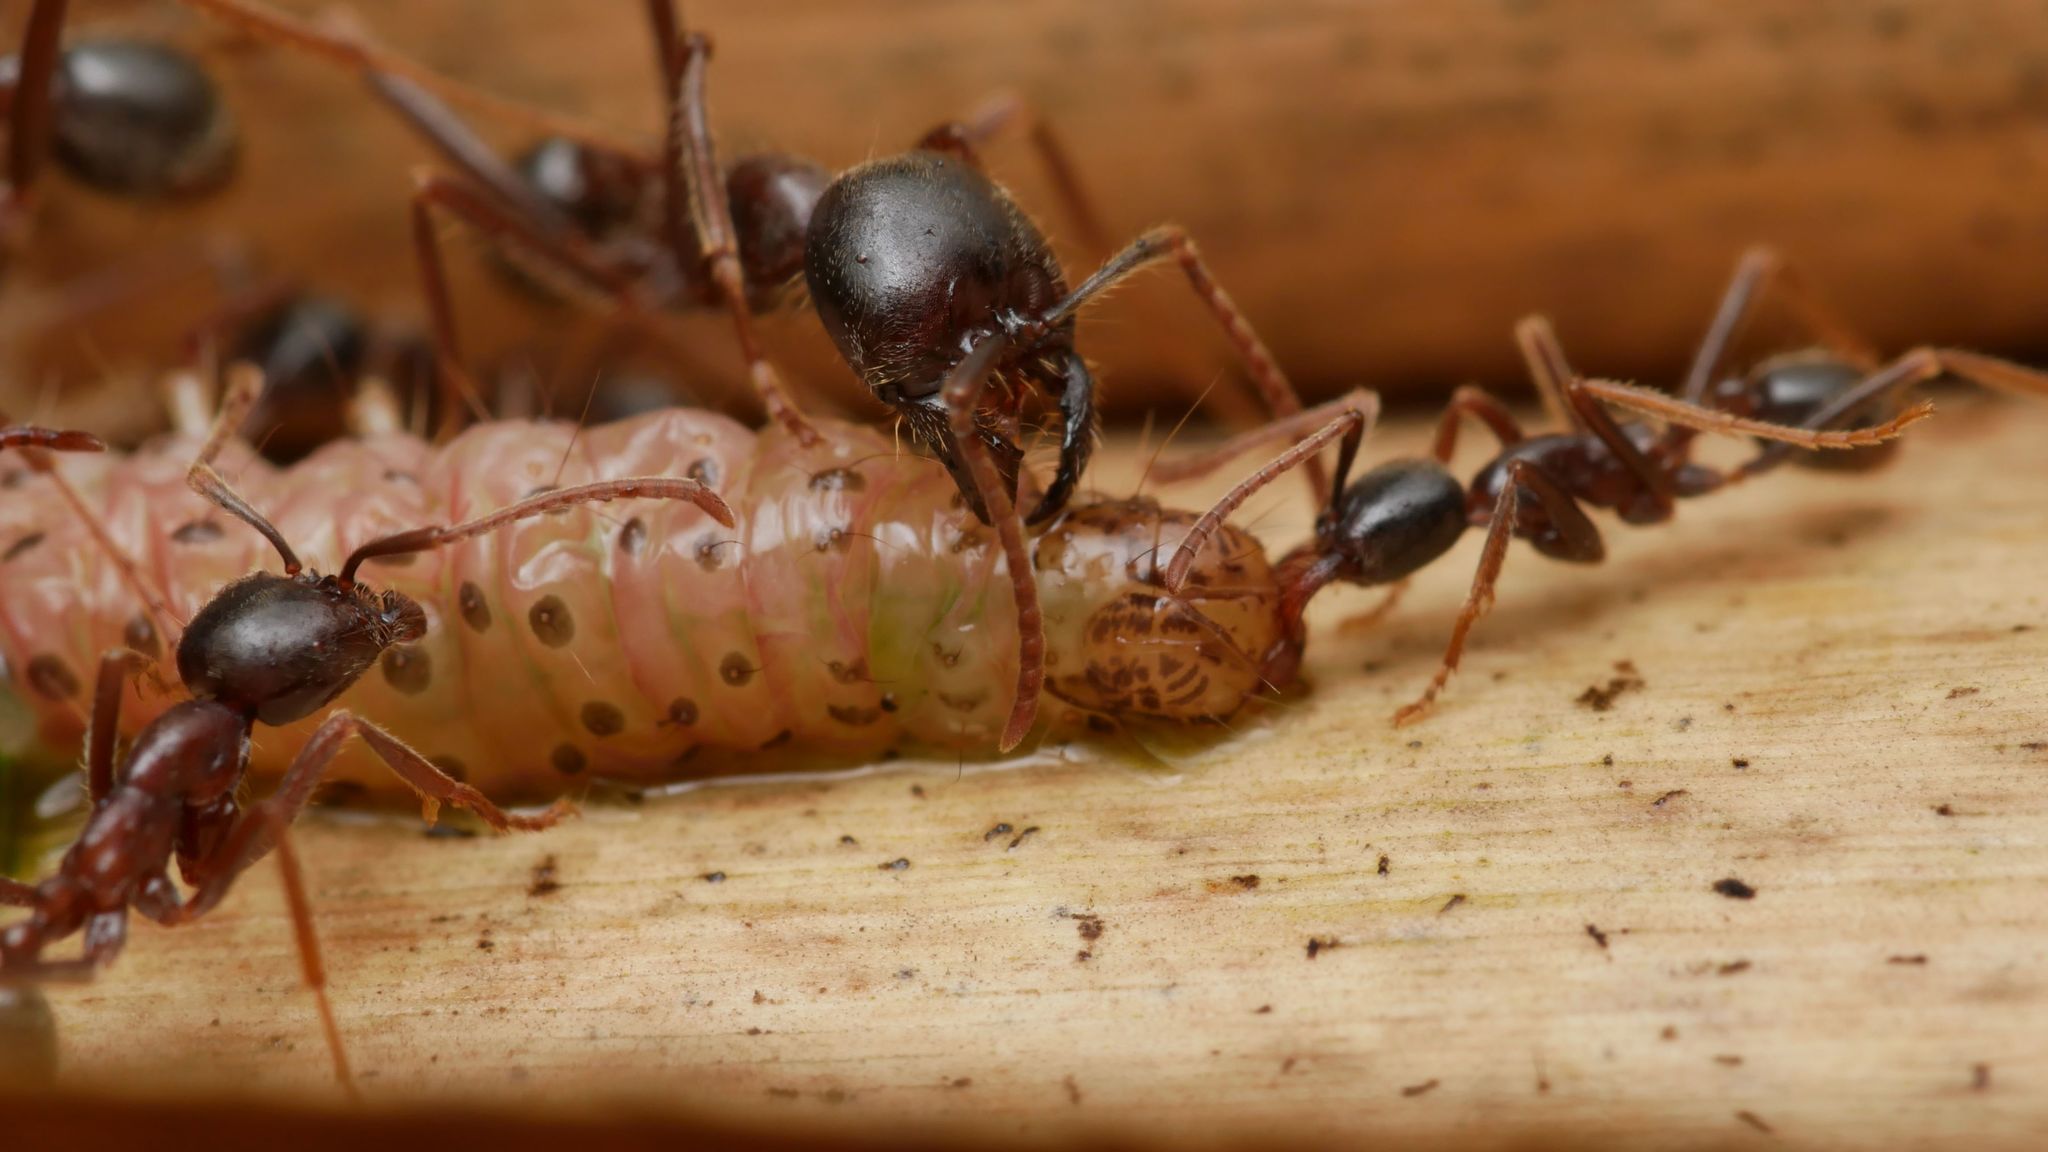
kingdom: Animalia
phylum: Arthropoda
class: Insecta
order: Hymenoptera
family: Formicidae
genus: Labidus
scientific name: Labidus praedator
